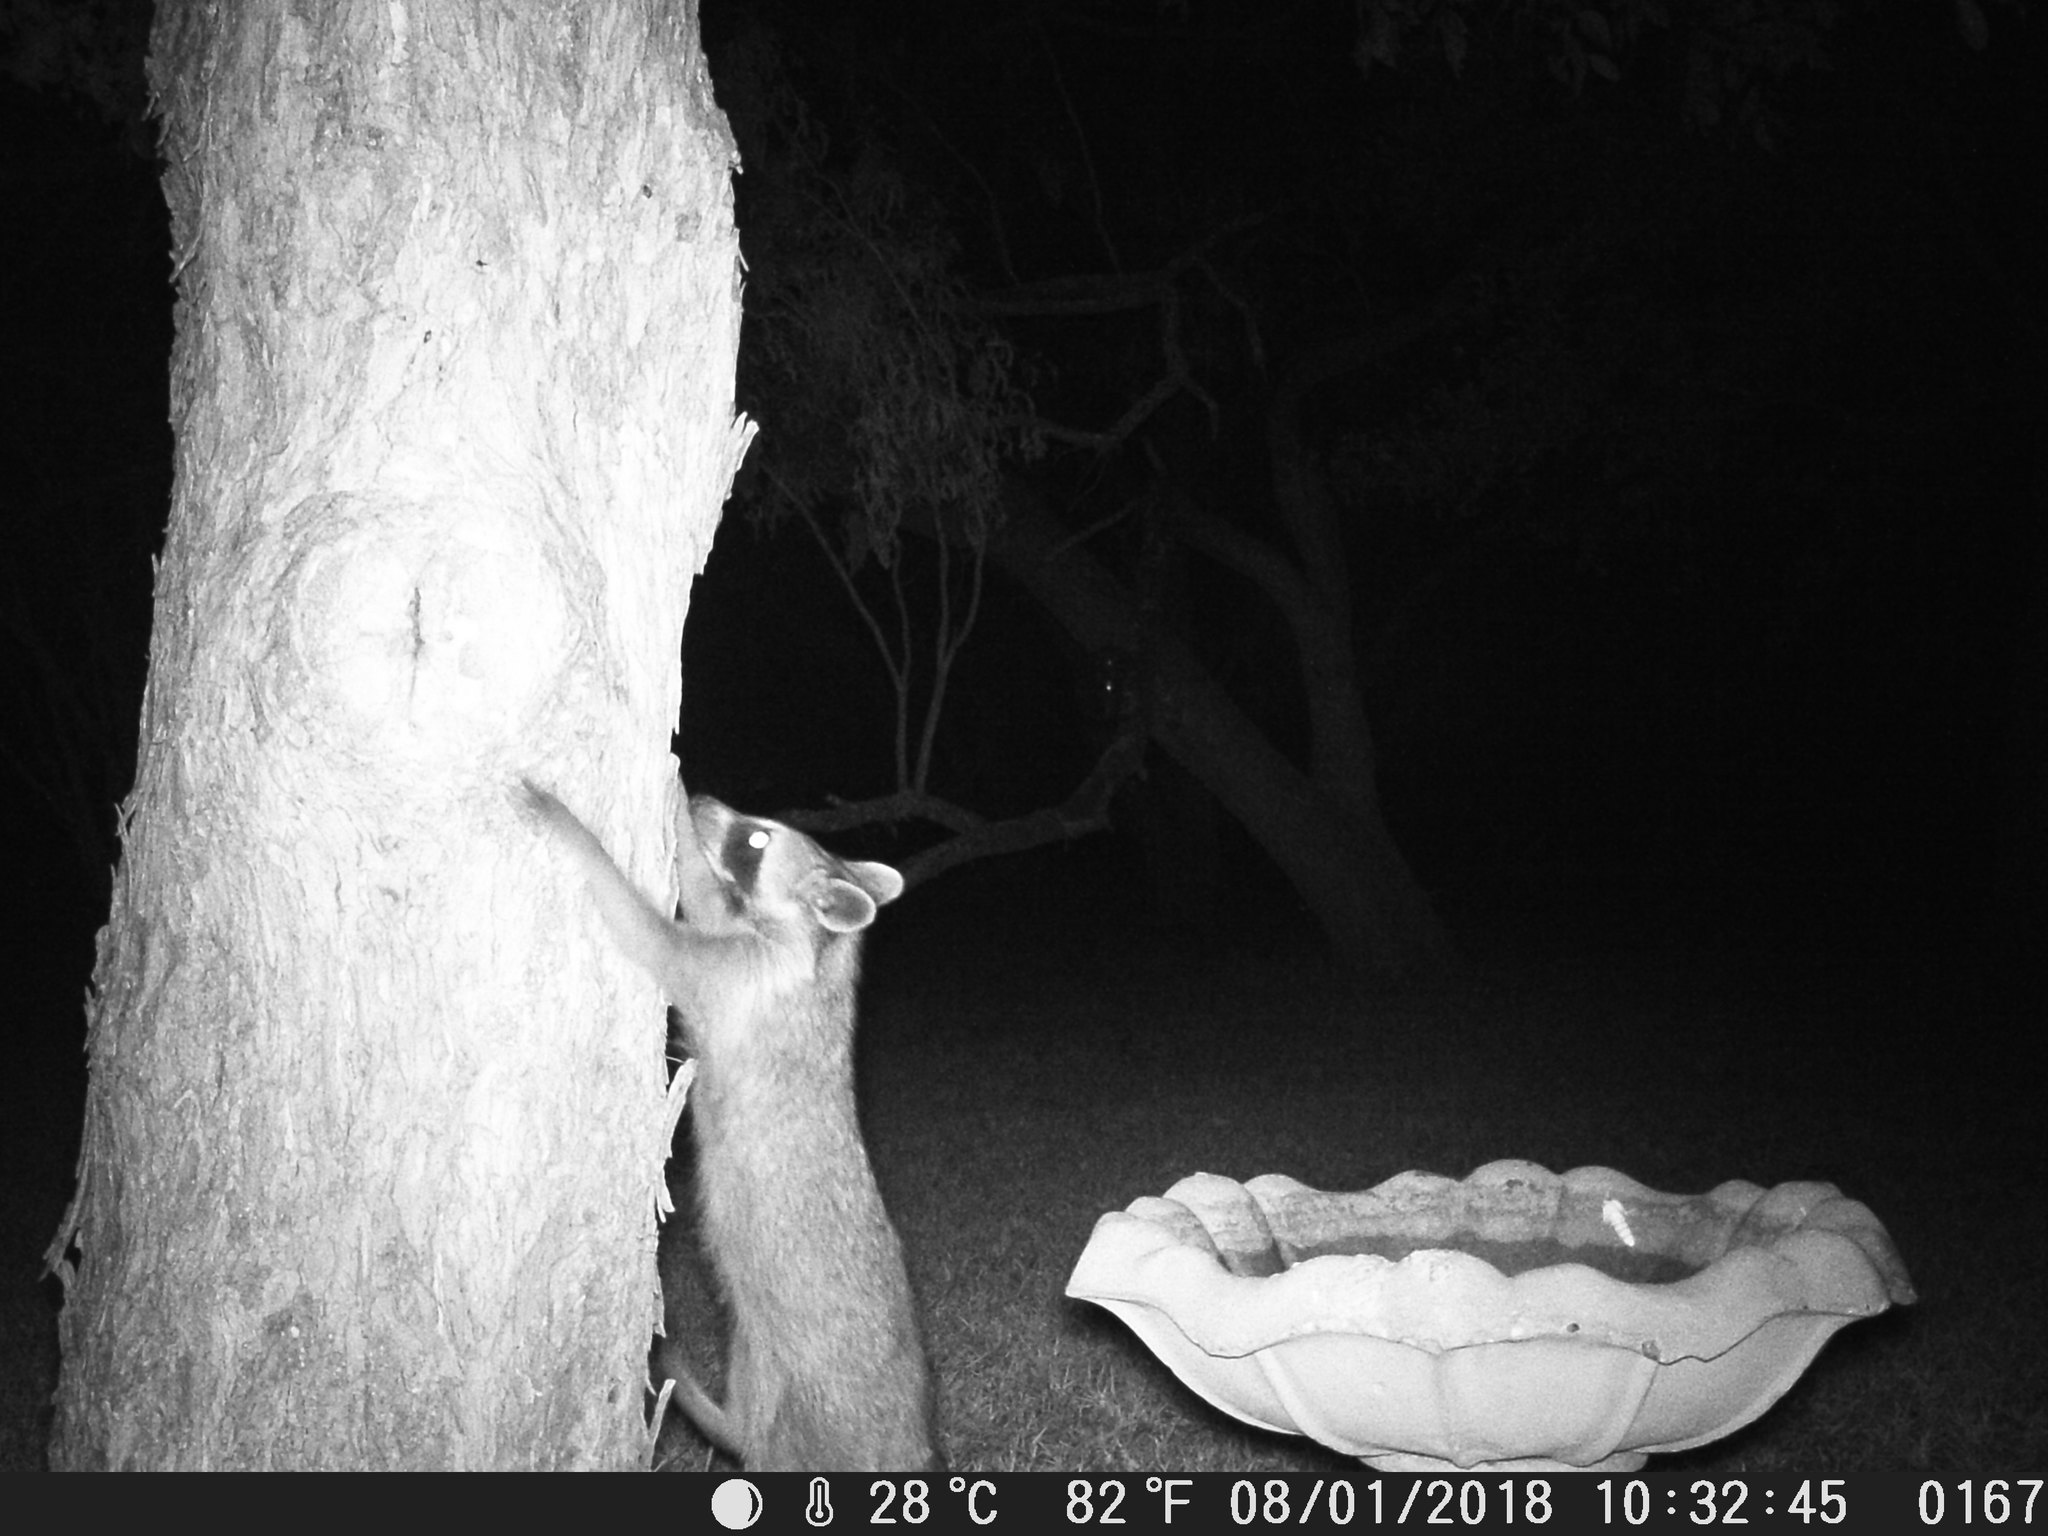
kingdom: Animalia
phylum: Chordata
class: Mammalia
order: Carnivora
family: Procyonidae
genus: Procyon
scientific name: Procyon lotor
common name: Raccoon
